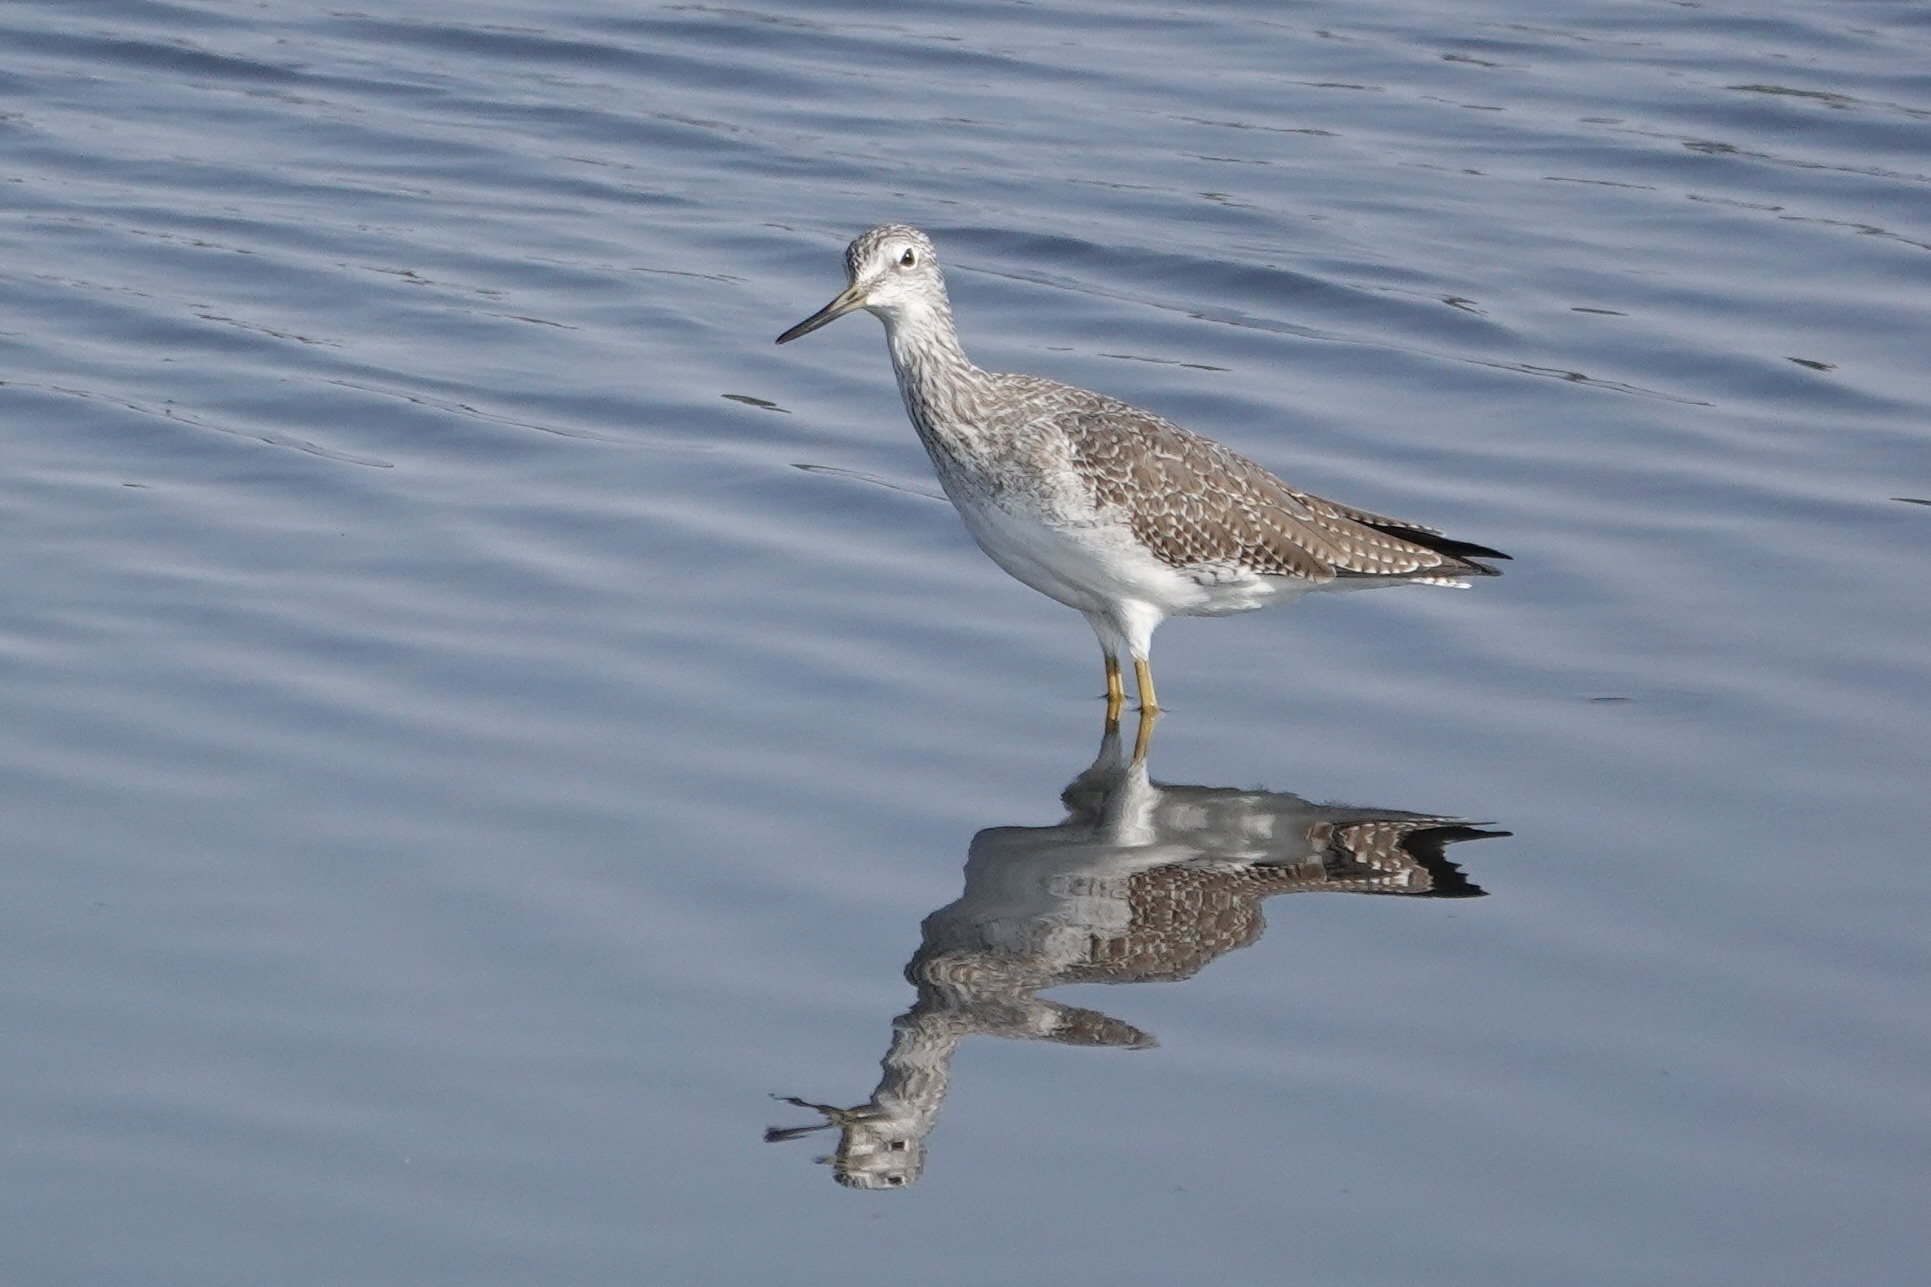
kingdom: Animalia
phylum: Chordata
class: Aves
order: Charadriiformes
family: Scolopacidae
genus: Tringa
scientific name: Tringa melanoleuca
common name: Greater yellowlegs
